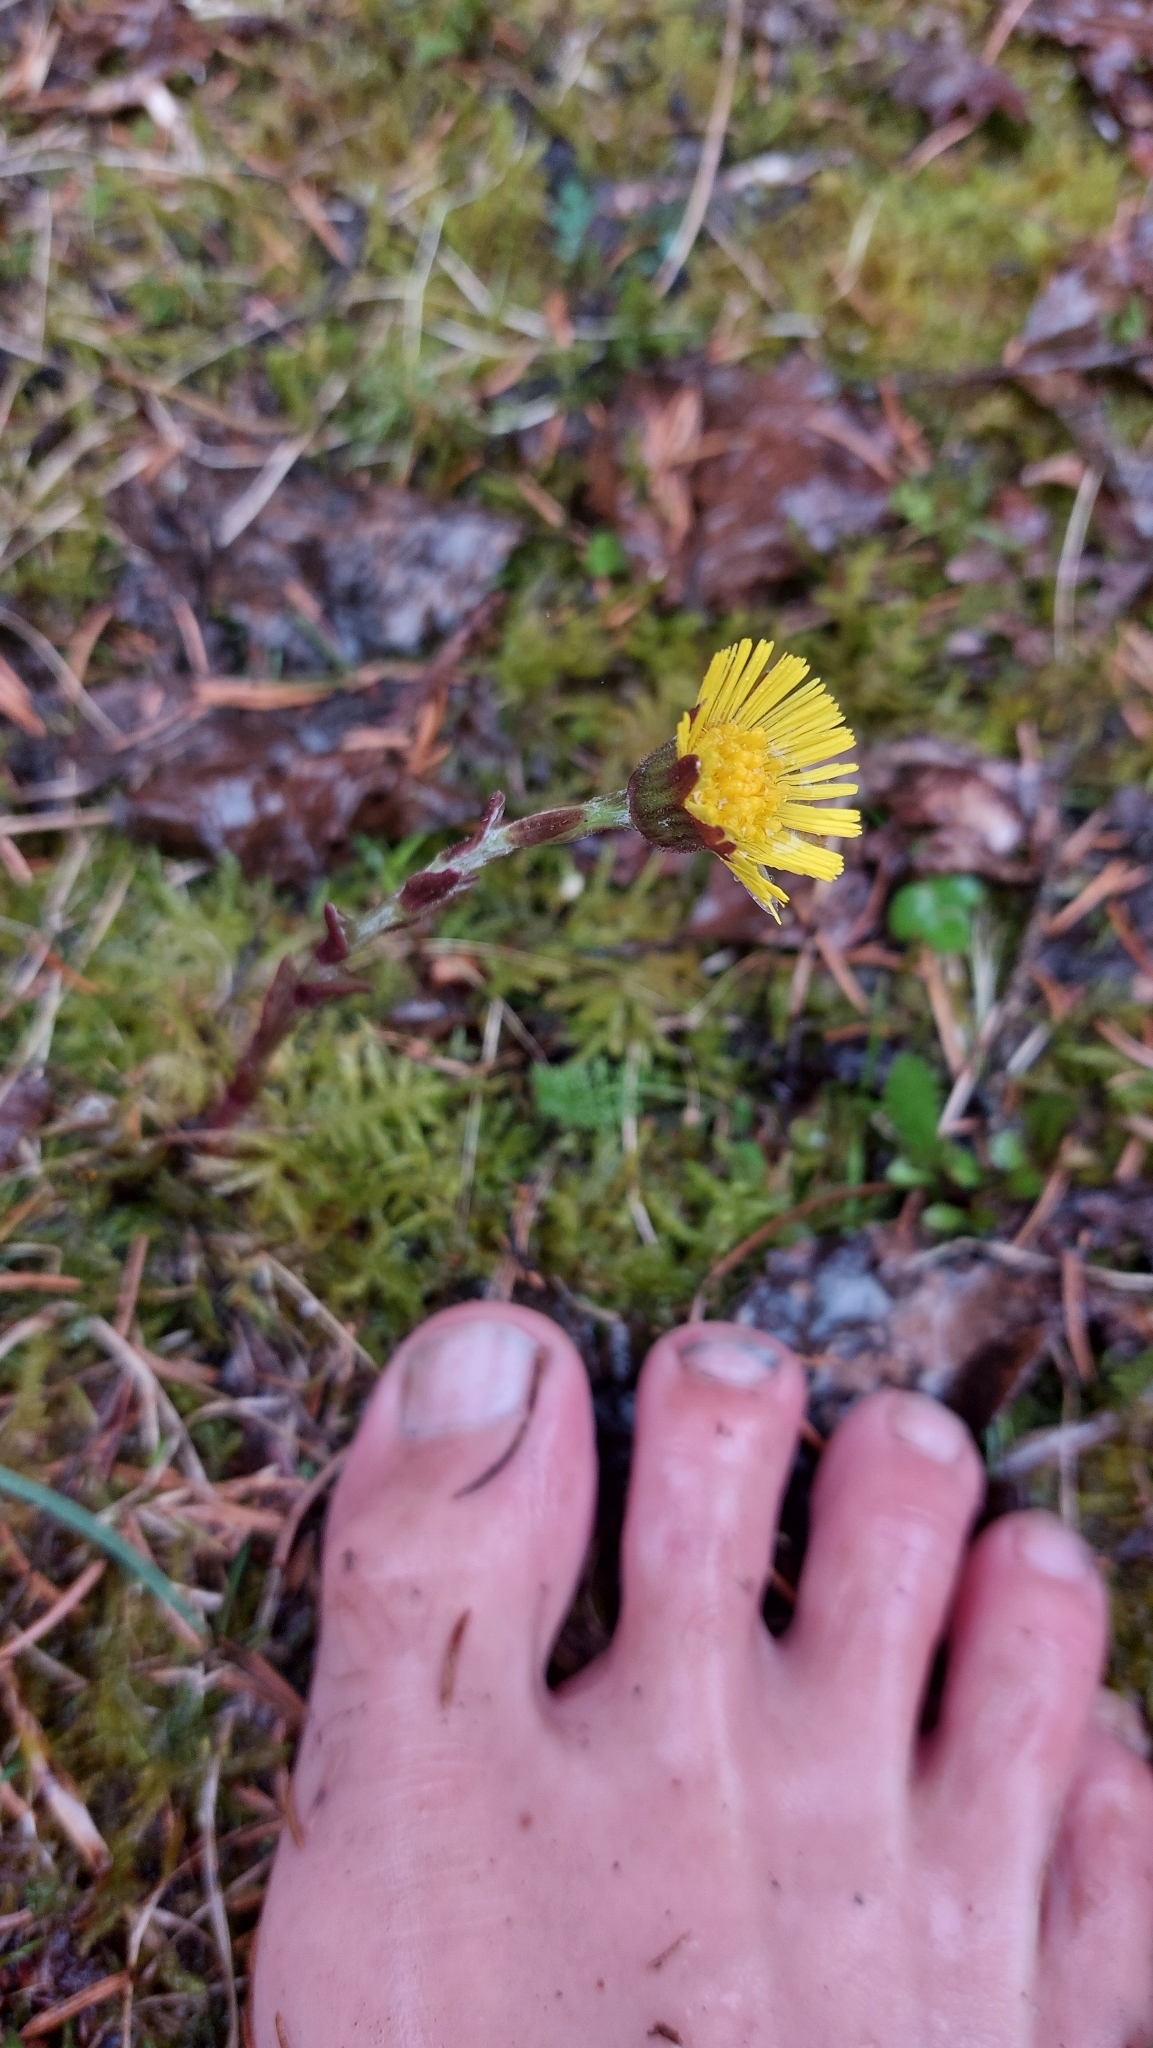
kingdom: Plantae
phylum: Tracheophyta
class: Magnoliopsida
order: Asterales
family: Asteraceae
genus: Tussilago
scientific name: Tussilago farfara
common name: Coltsfoot
